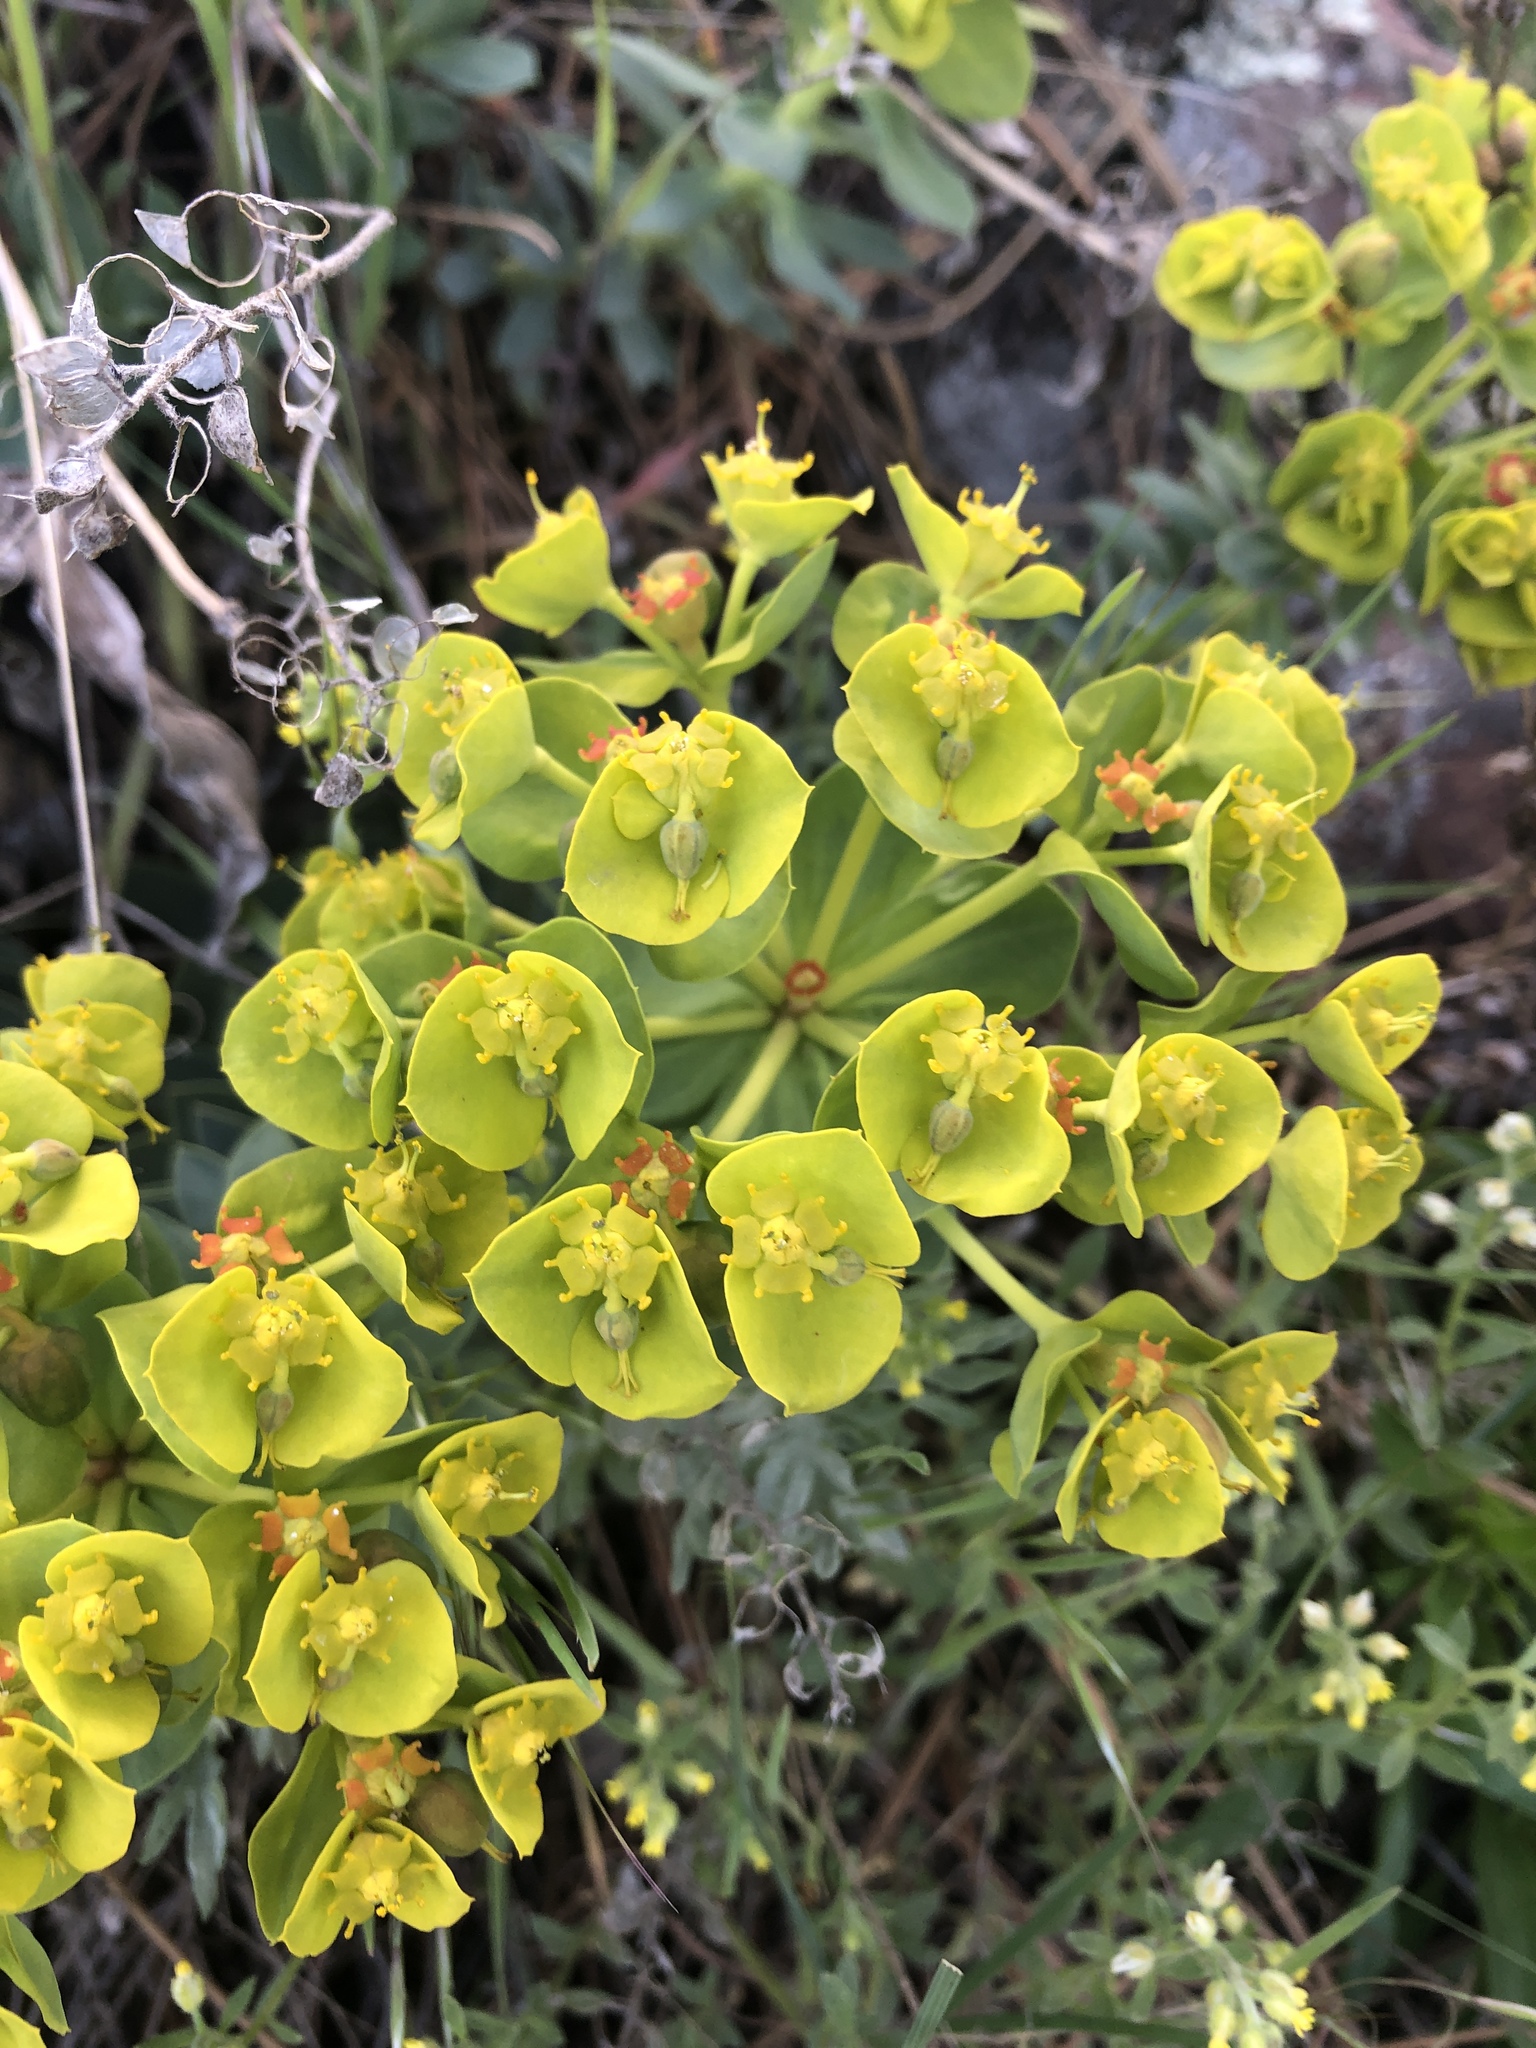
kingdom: Plantae
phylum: Tracheophyta
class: Magnoliopsida
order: Malpighiales
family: Euphorbiaceae
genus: Euphorbia
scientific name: Euphorbia myrsinites
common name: Myrtle spurge
